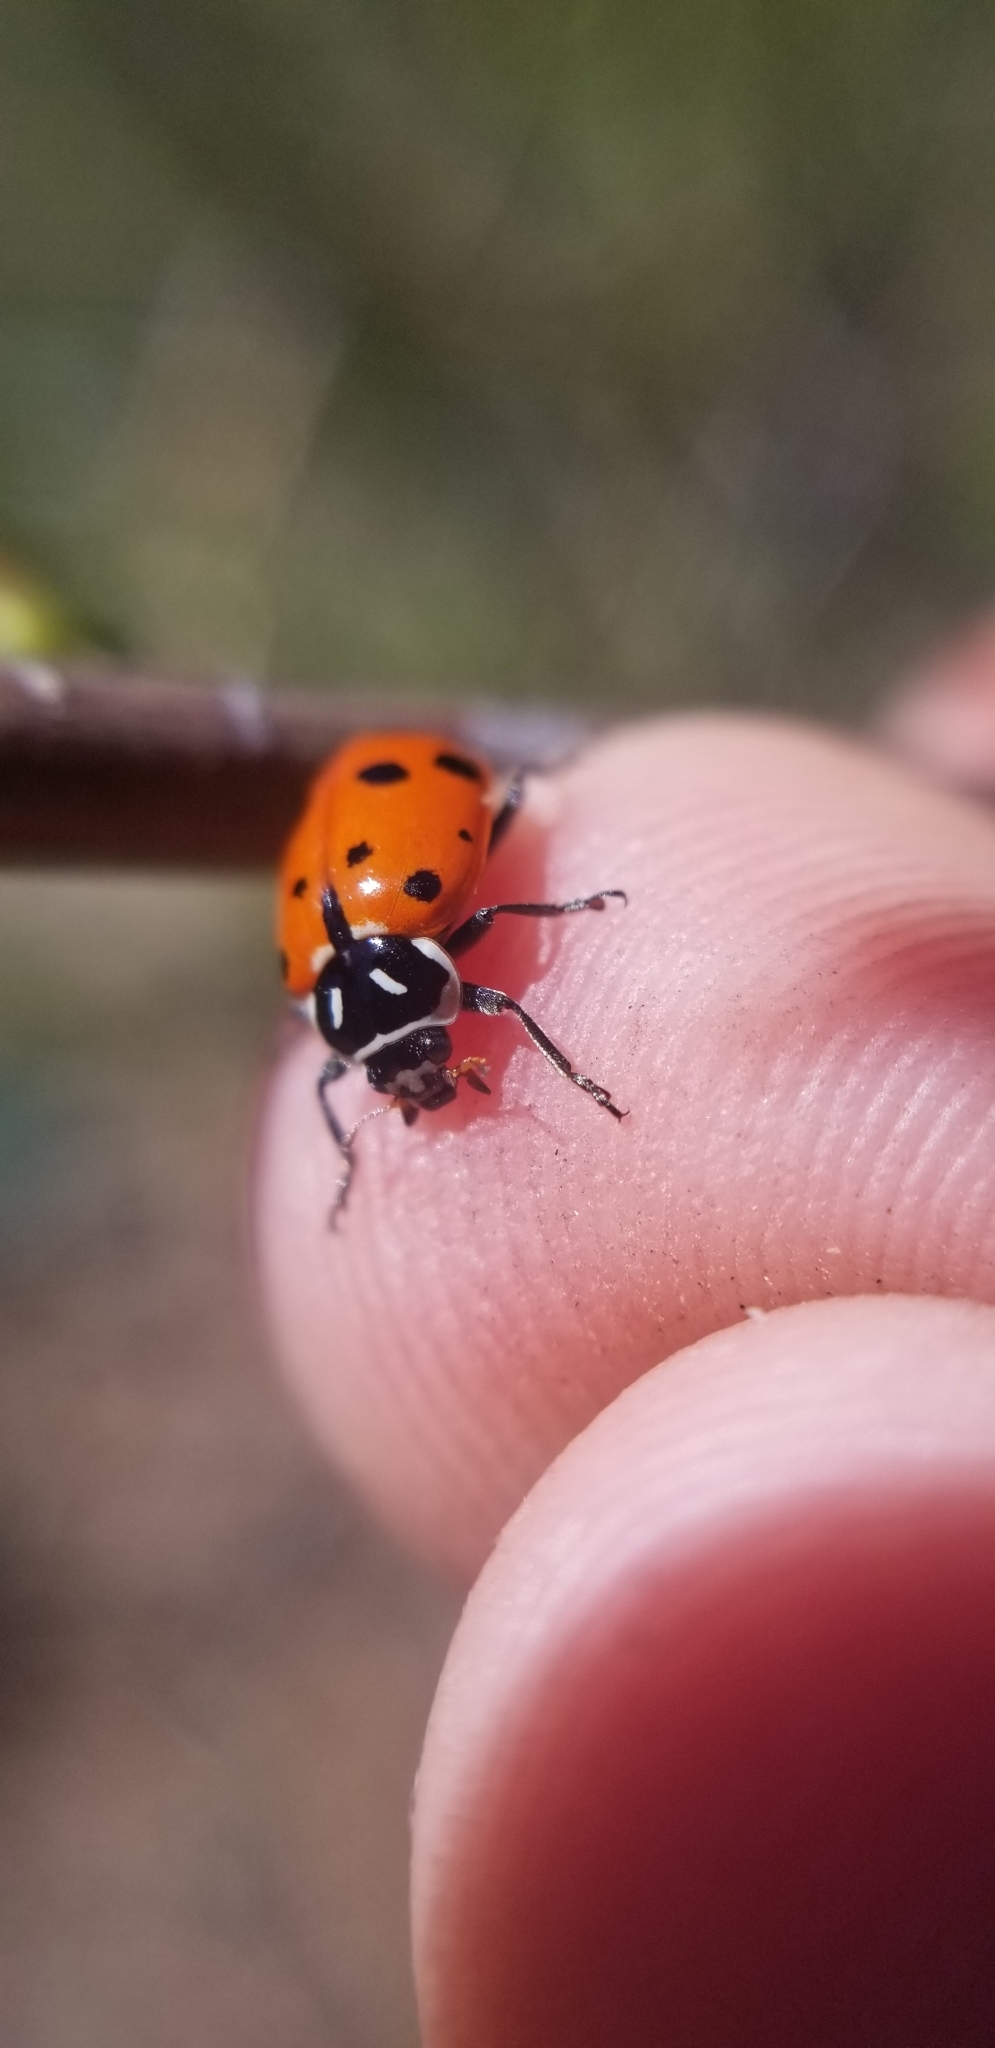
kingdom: Animalia
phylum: Arthropoda
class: Insecta
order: Coleoptera
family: Coccinellidae
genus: Hippodamia
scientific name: Hippodamia convergens
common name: Convergent lady beetle
